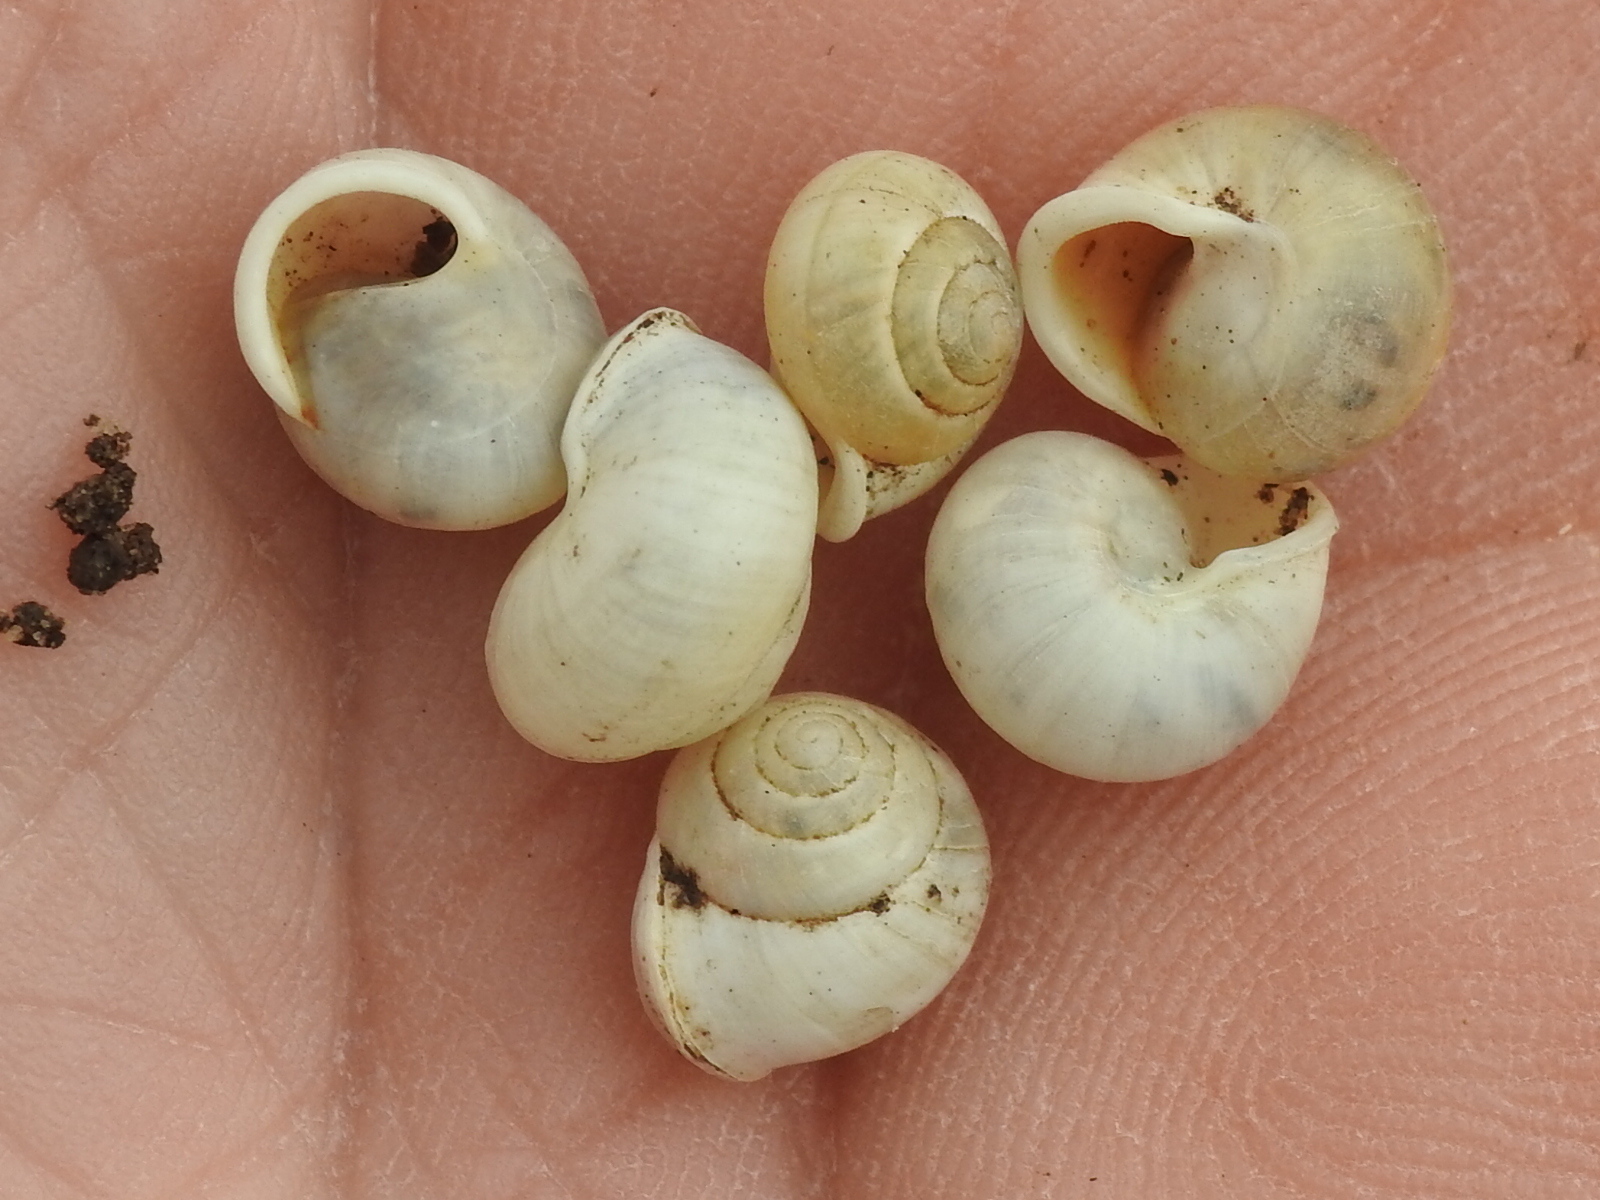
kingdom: Animalia
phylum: Mollusca
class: Gastropoda
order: Cycloneritida
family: Helicinidae
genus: Helicina
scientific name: Helicina orbiculata
